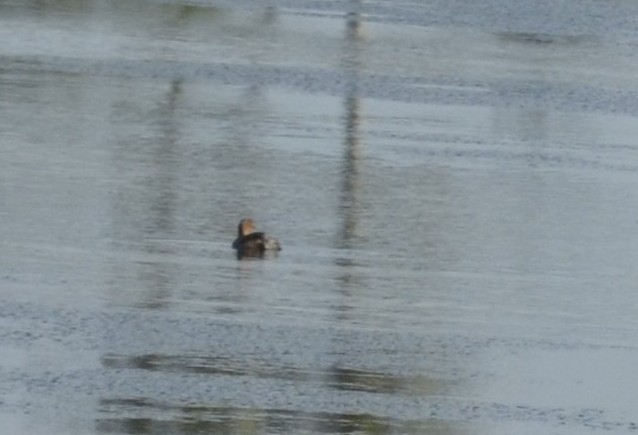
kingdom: Animalia
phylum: Chordata
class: Aves
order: Podicipediformes
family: Podicipedidae
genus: Tachybaptus
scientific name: Tachybaptus ruficollis
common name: Little grebe
